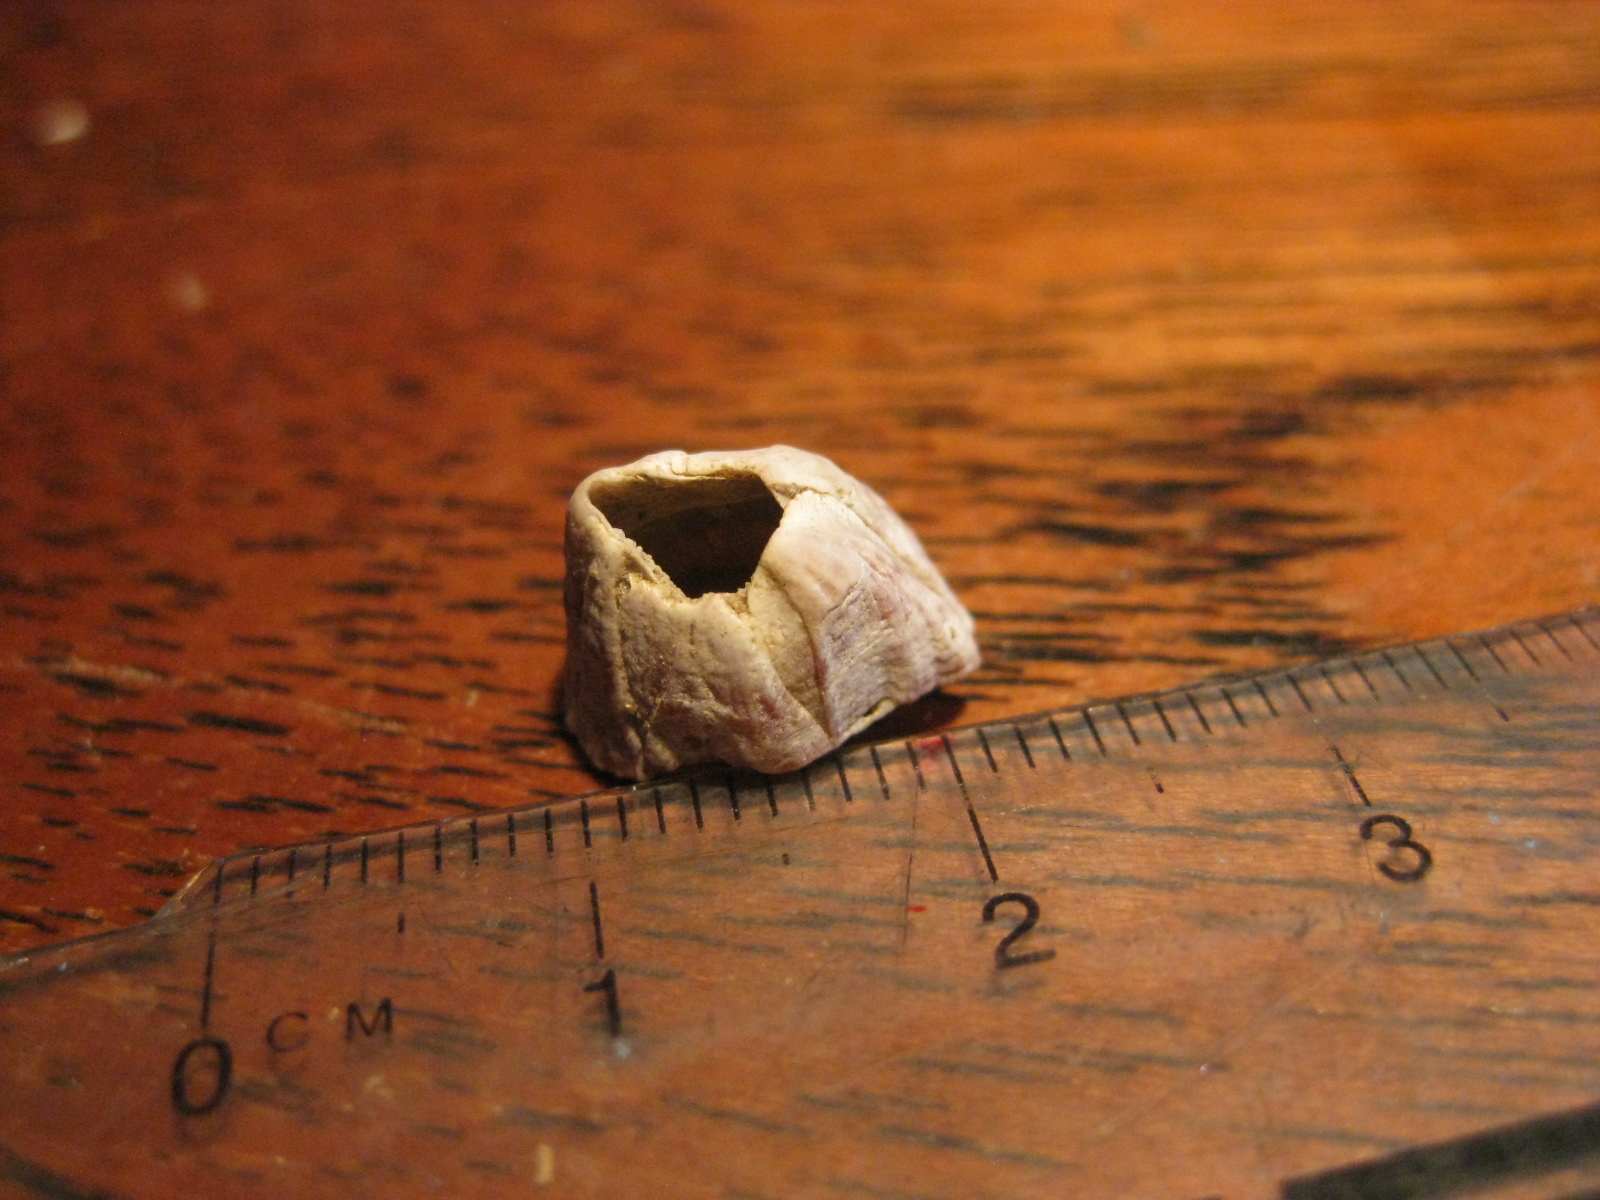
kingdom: Animalia
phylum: Arthropoda
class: Maxillopoda
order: Sessilia
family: Balanidae
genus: Balanus
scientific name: Balanus trigonus
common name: Triangle barnacle
